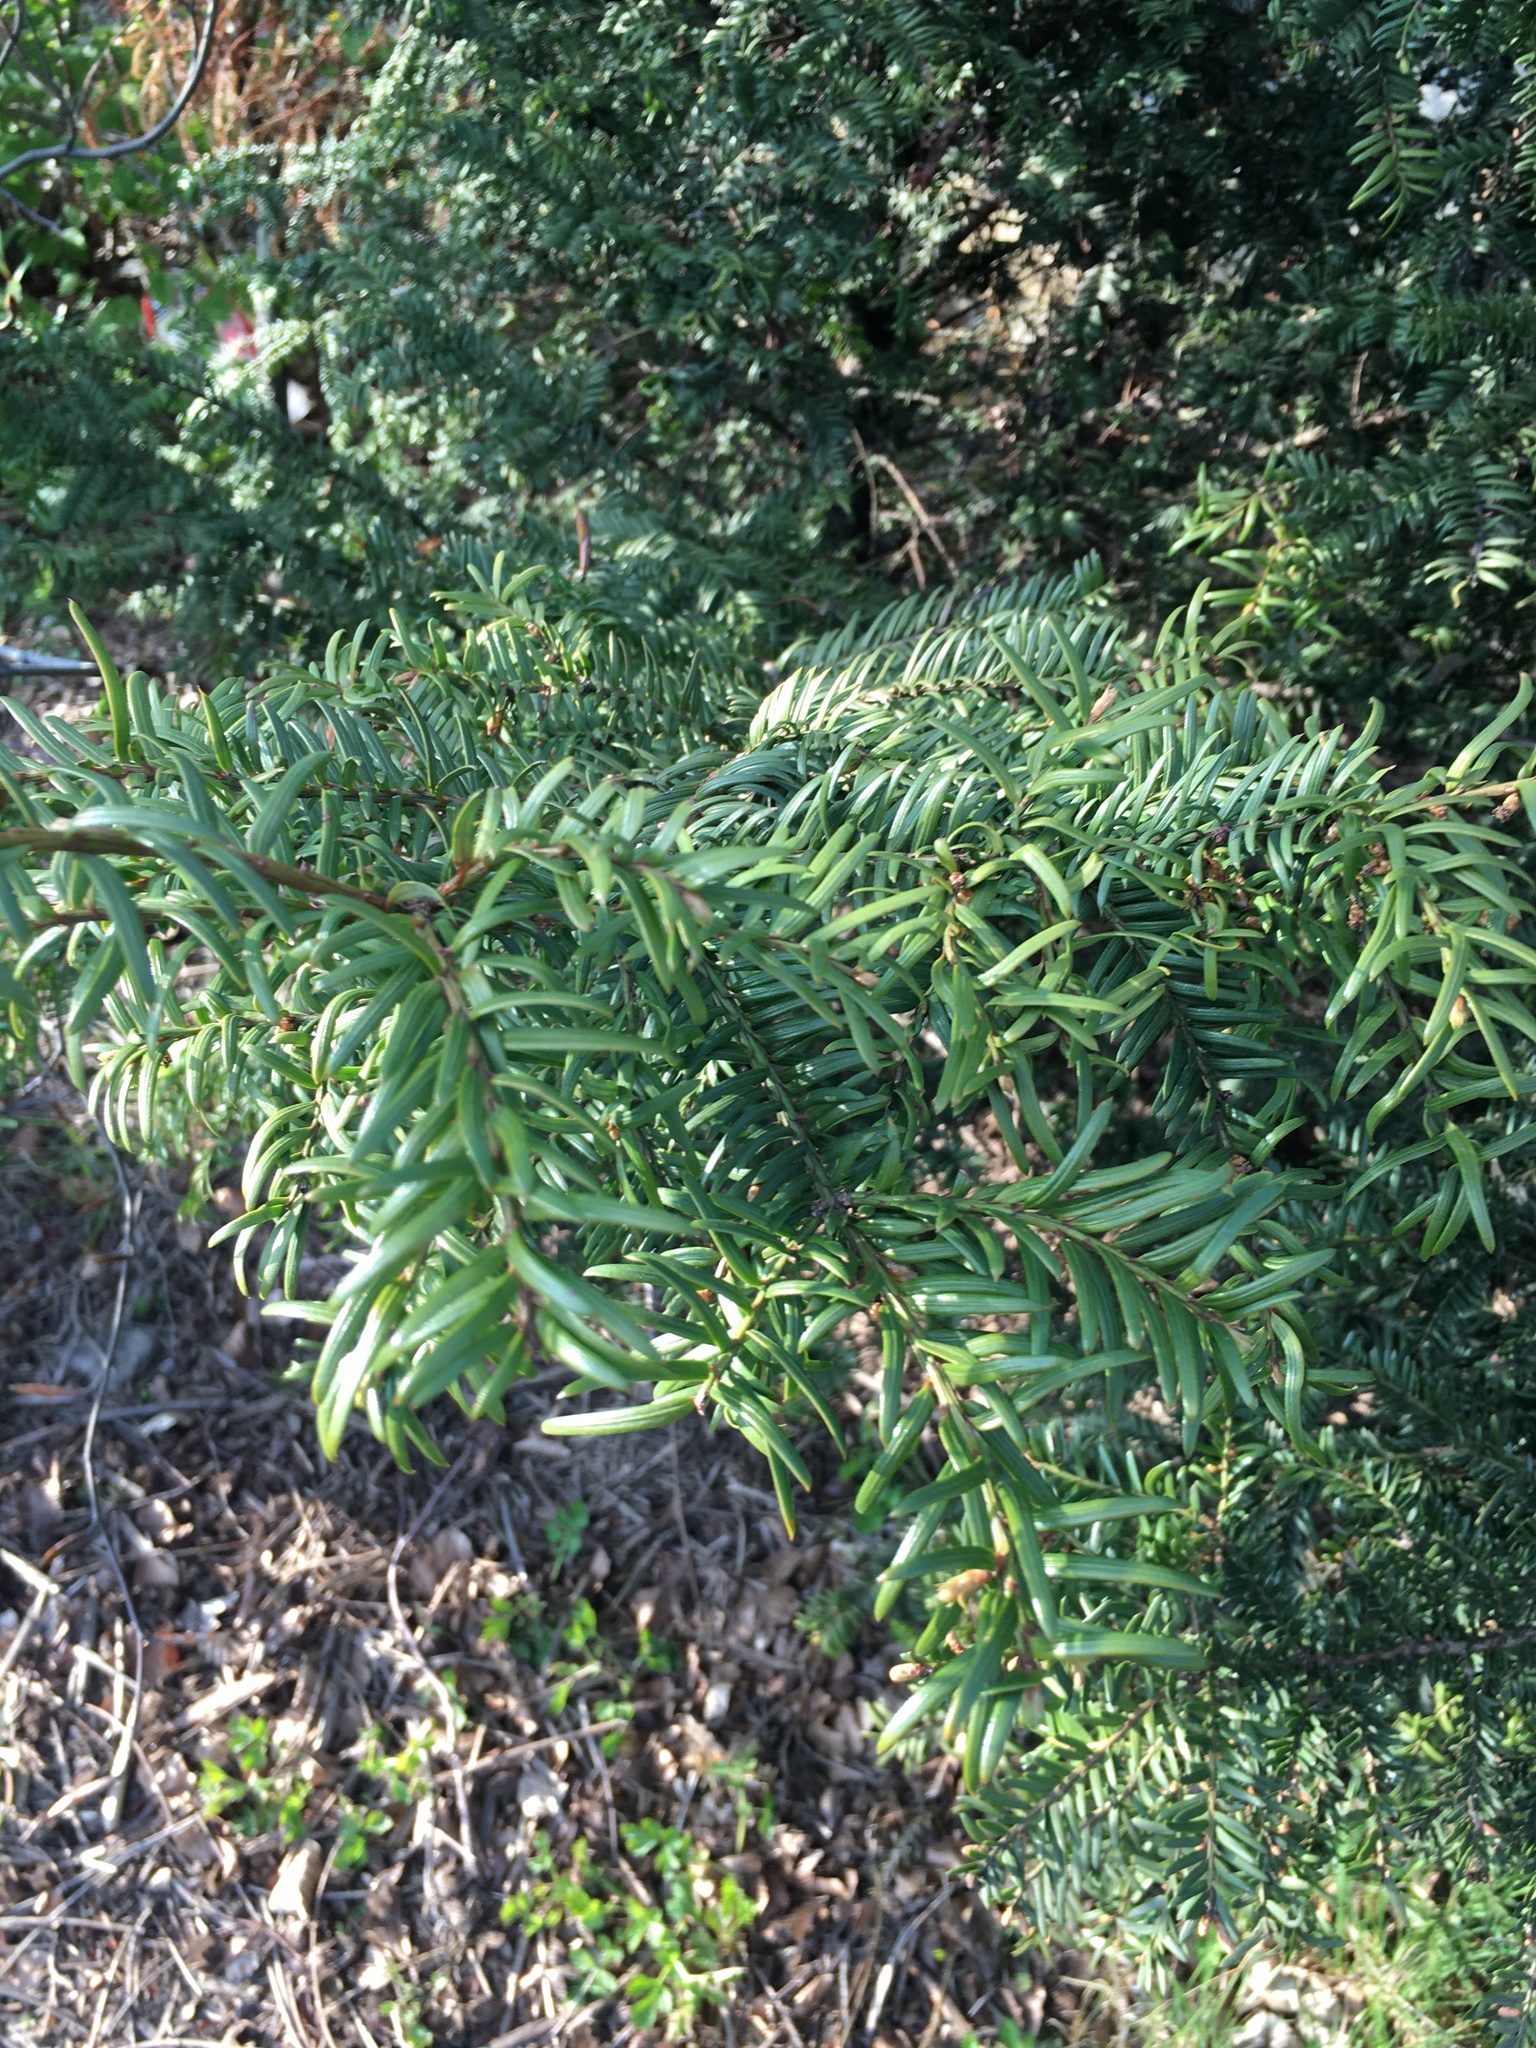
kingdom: Plantae
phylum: Tracheophyta
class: Pinopsida
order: Pinales
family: Taxaceae
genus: Taxus
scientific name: Taxus baccata
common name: Yew
